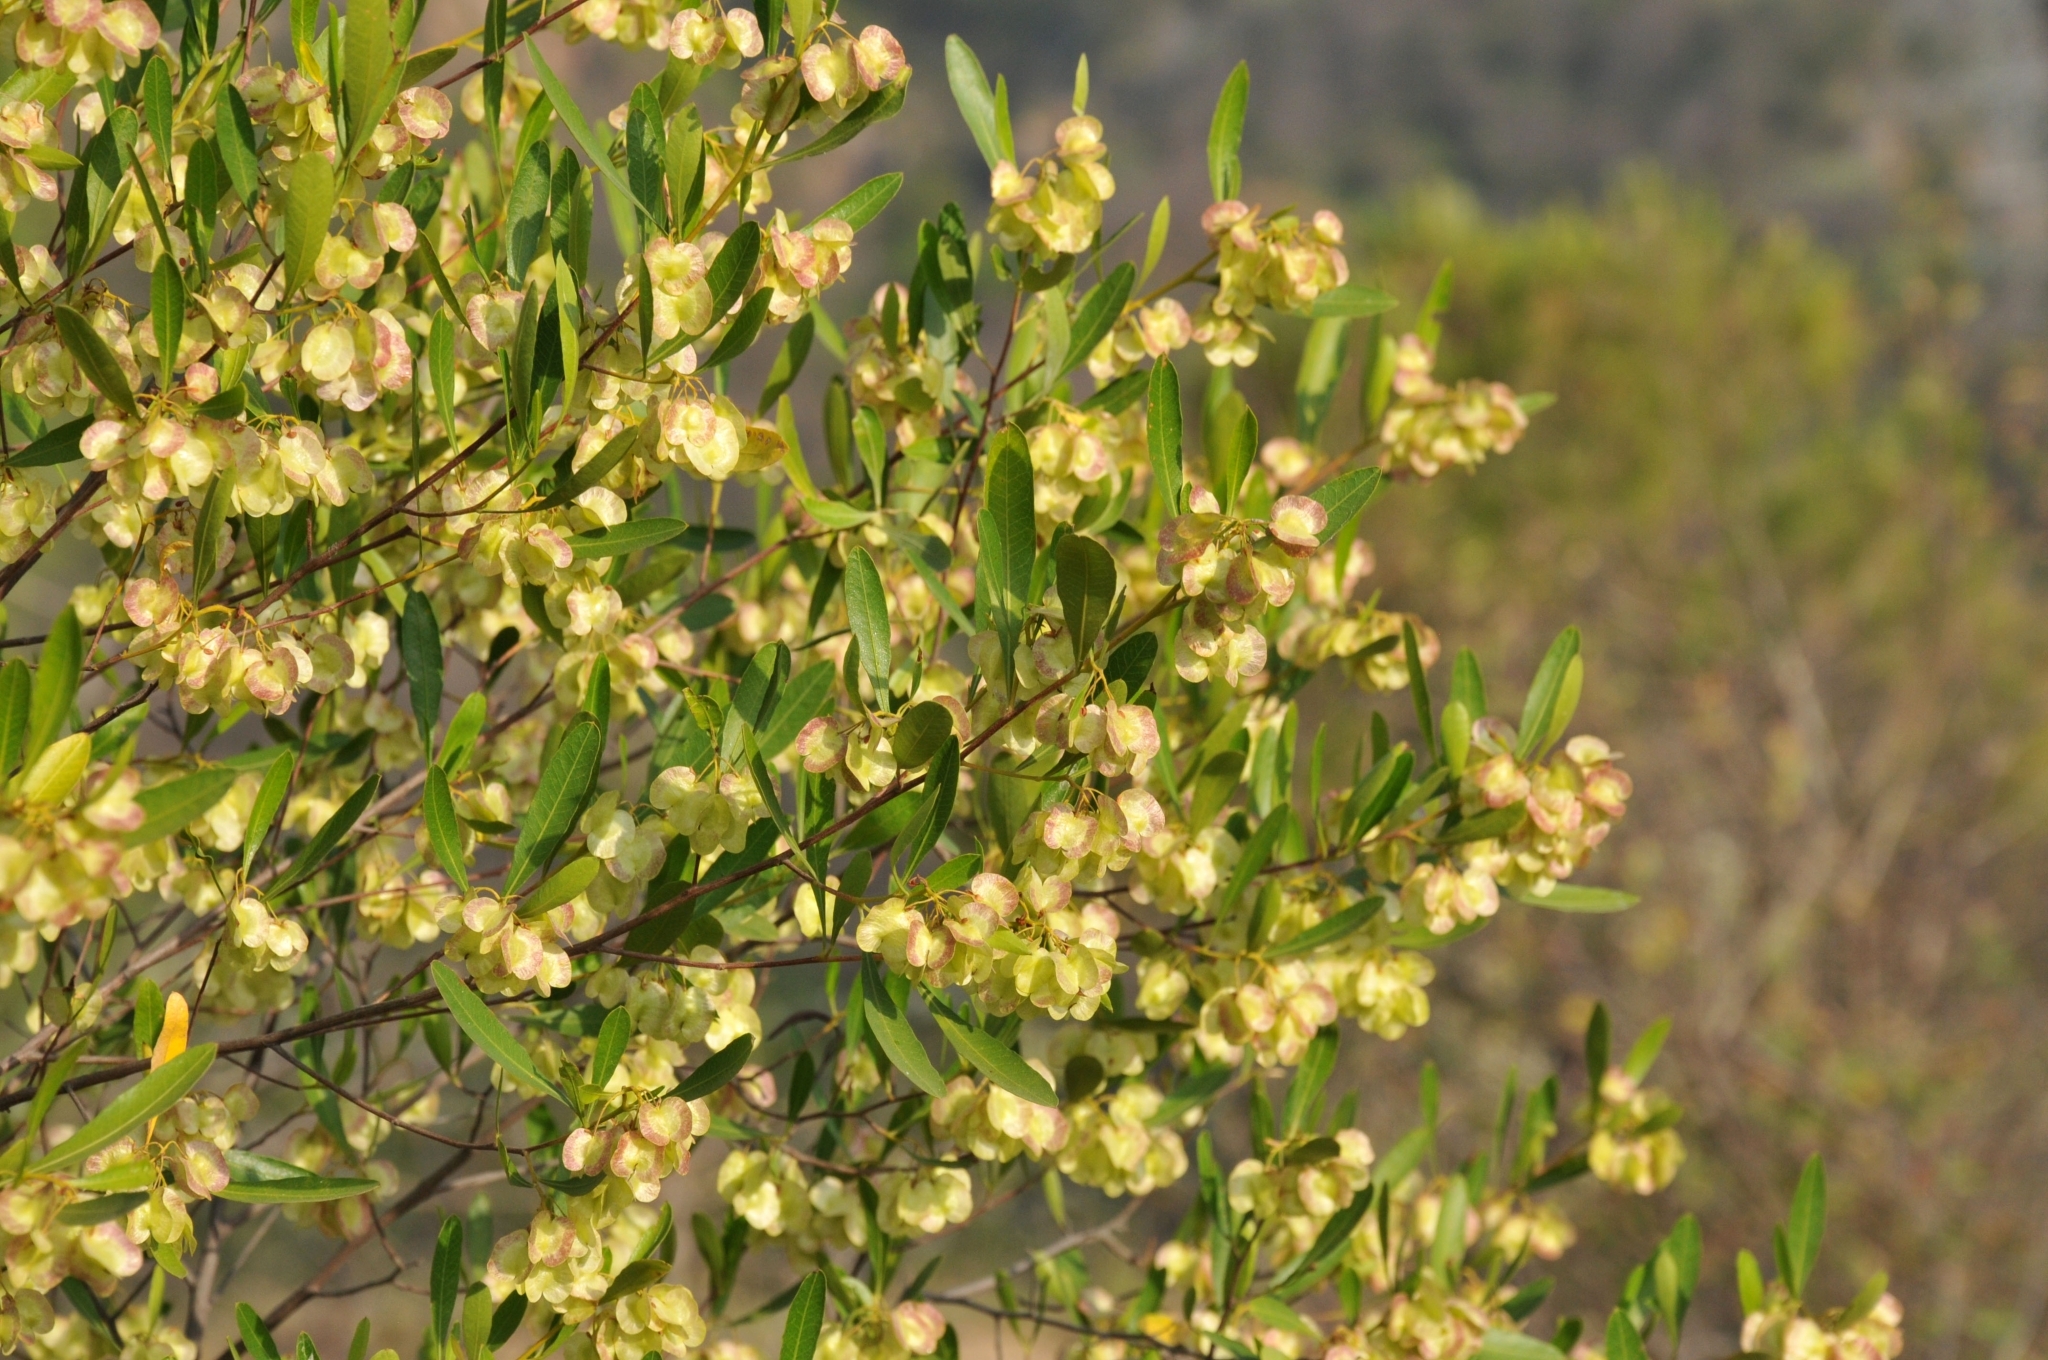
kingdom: Plantae
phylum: Tracheophyta
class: Magnoliopsida
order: Sapindales
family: Sapindaceae
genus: Dodonaea
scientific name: Dodonaea viscosa
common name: Hopbush
